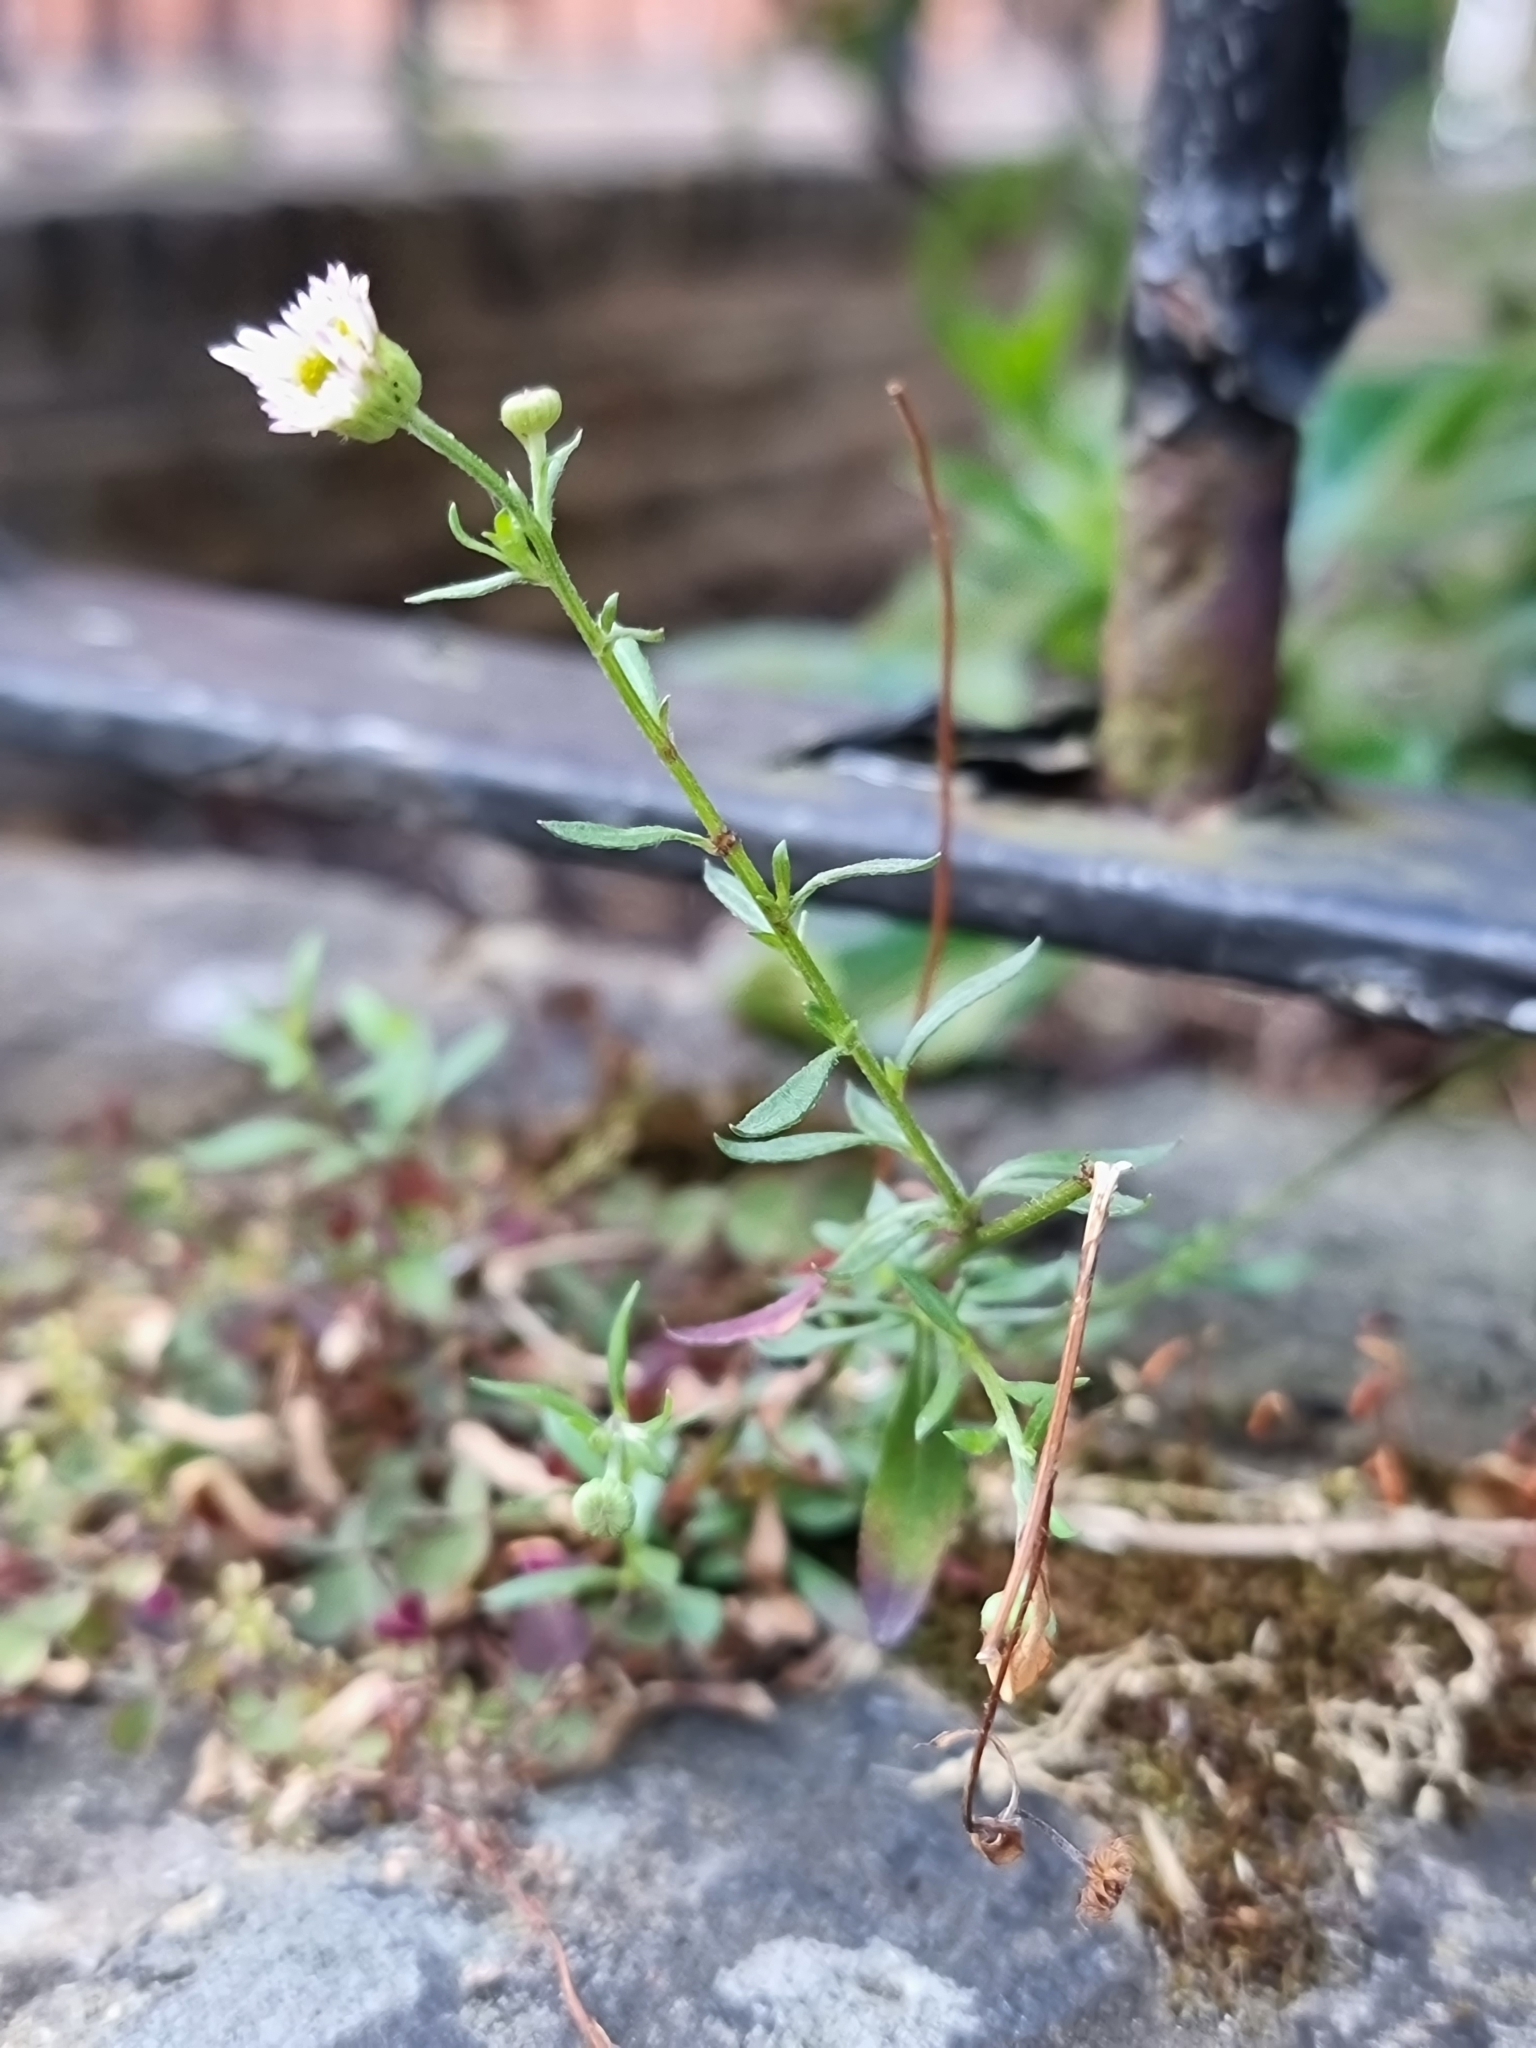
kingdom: Plantae
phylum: Tracheophyta
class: Magnoliopsida
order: Asterales
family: Asteraceae
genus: Erigeron
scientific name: Erigeron karvinskianus
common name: Mexican fleabane
